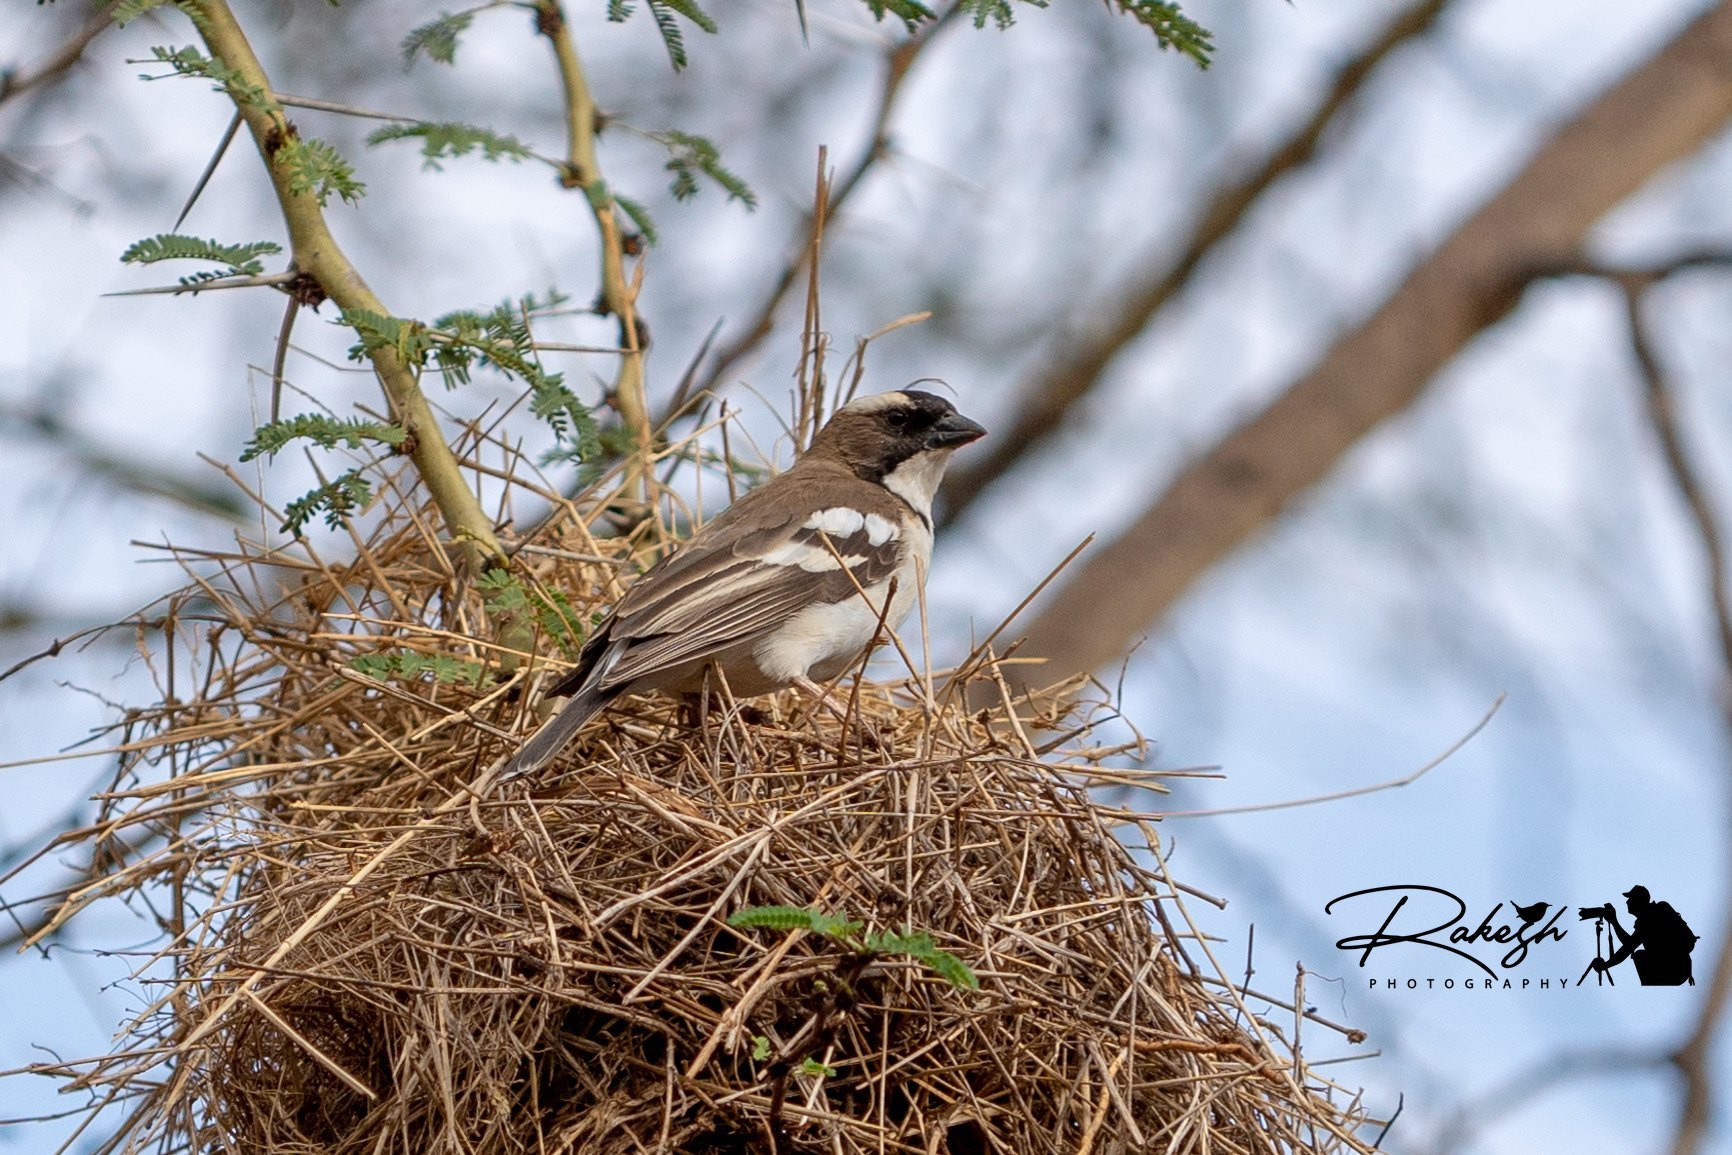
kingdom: Animalia
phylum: Chordata
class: Aves
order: Passeriformes
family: Passeridae
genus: Plocepasser
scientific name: Plocepasser mahali
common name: White-browed sparrow-weaver
